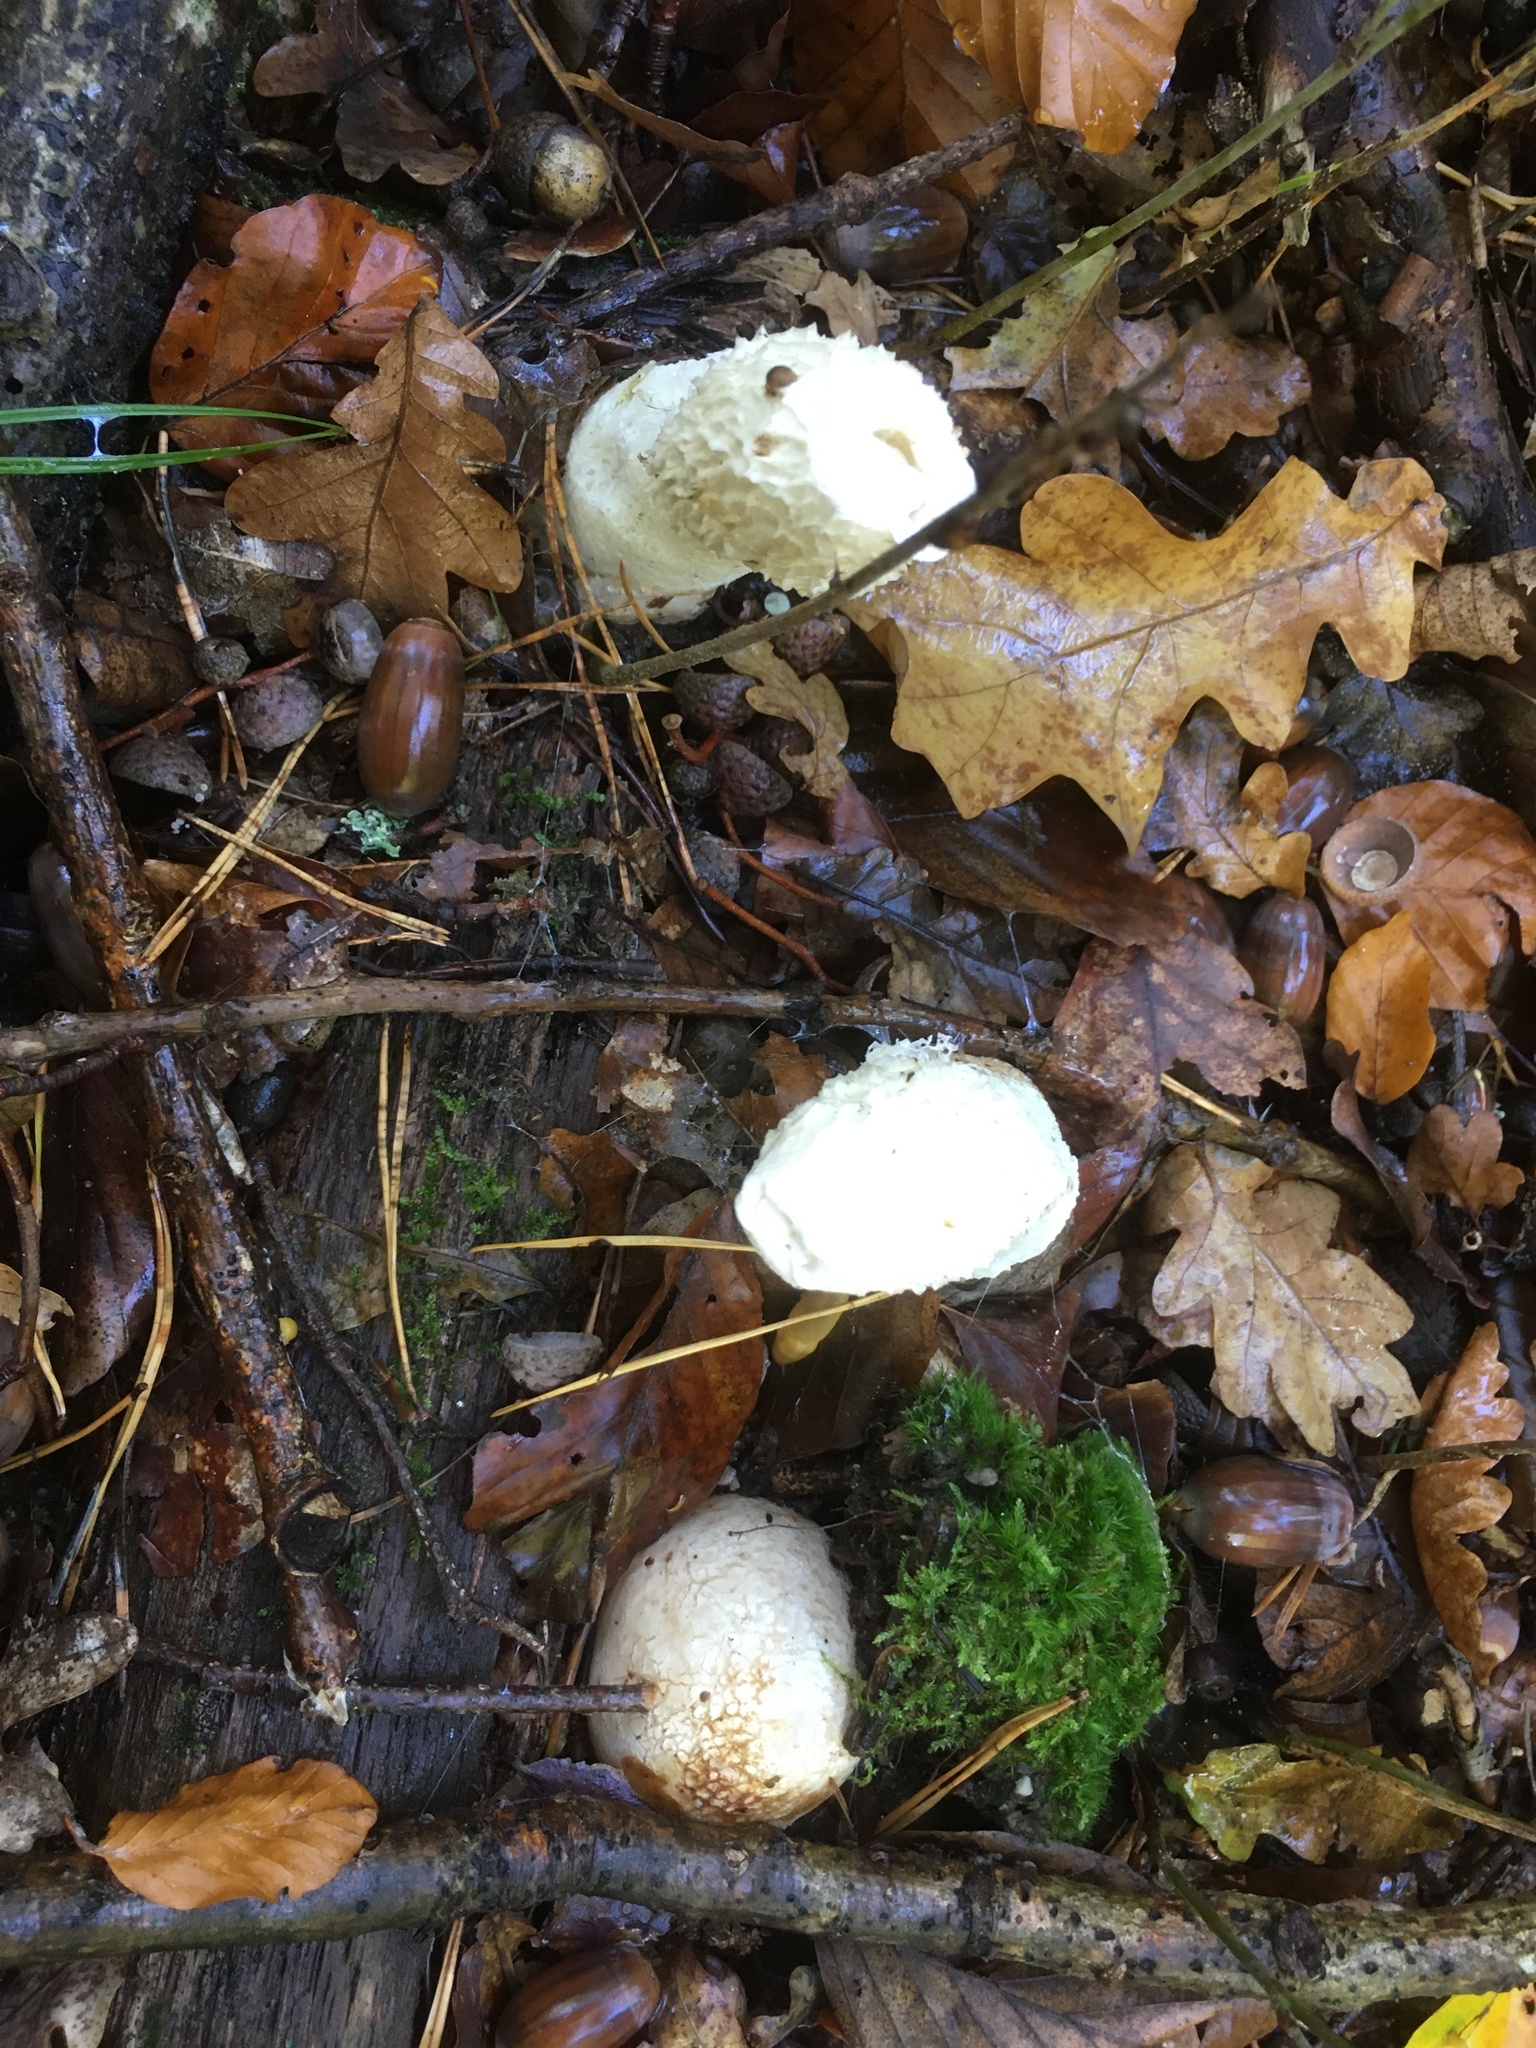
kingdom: Fungi
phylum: Basidiomycota
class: Agaricomycetes
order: Phallales
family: Phallaceae
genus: Phallus
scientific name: Phallus impudicus
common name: Common stinkhorn
